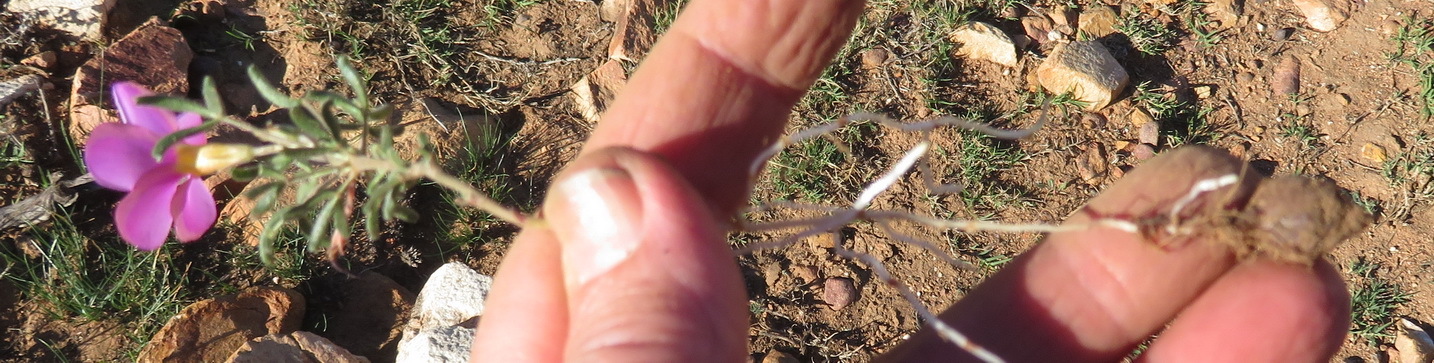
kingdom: Plantae
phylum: Tracheophyta
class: Magnoliopsida
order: Oxalidales
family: Oxalidaceae
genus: Oxalis
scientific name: Oxalis ciliaris
